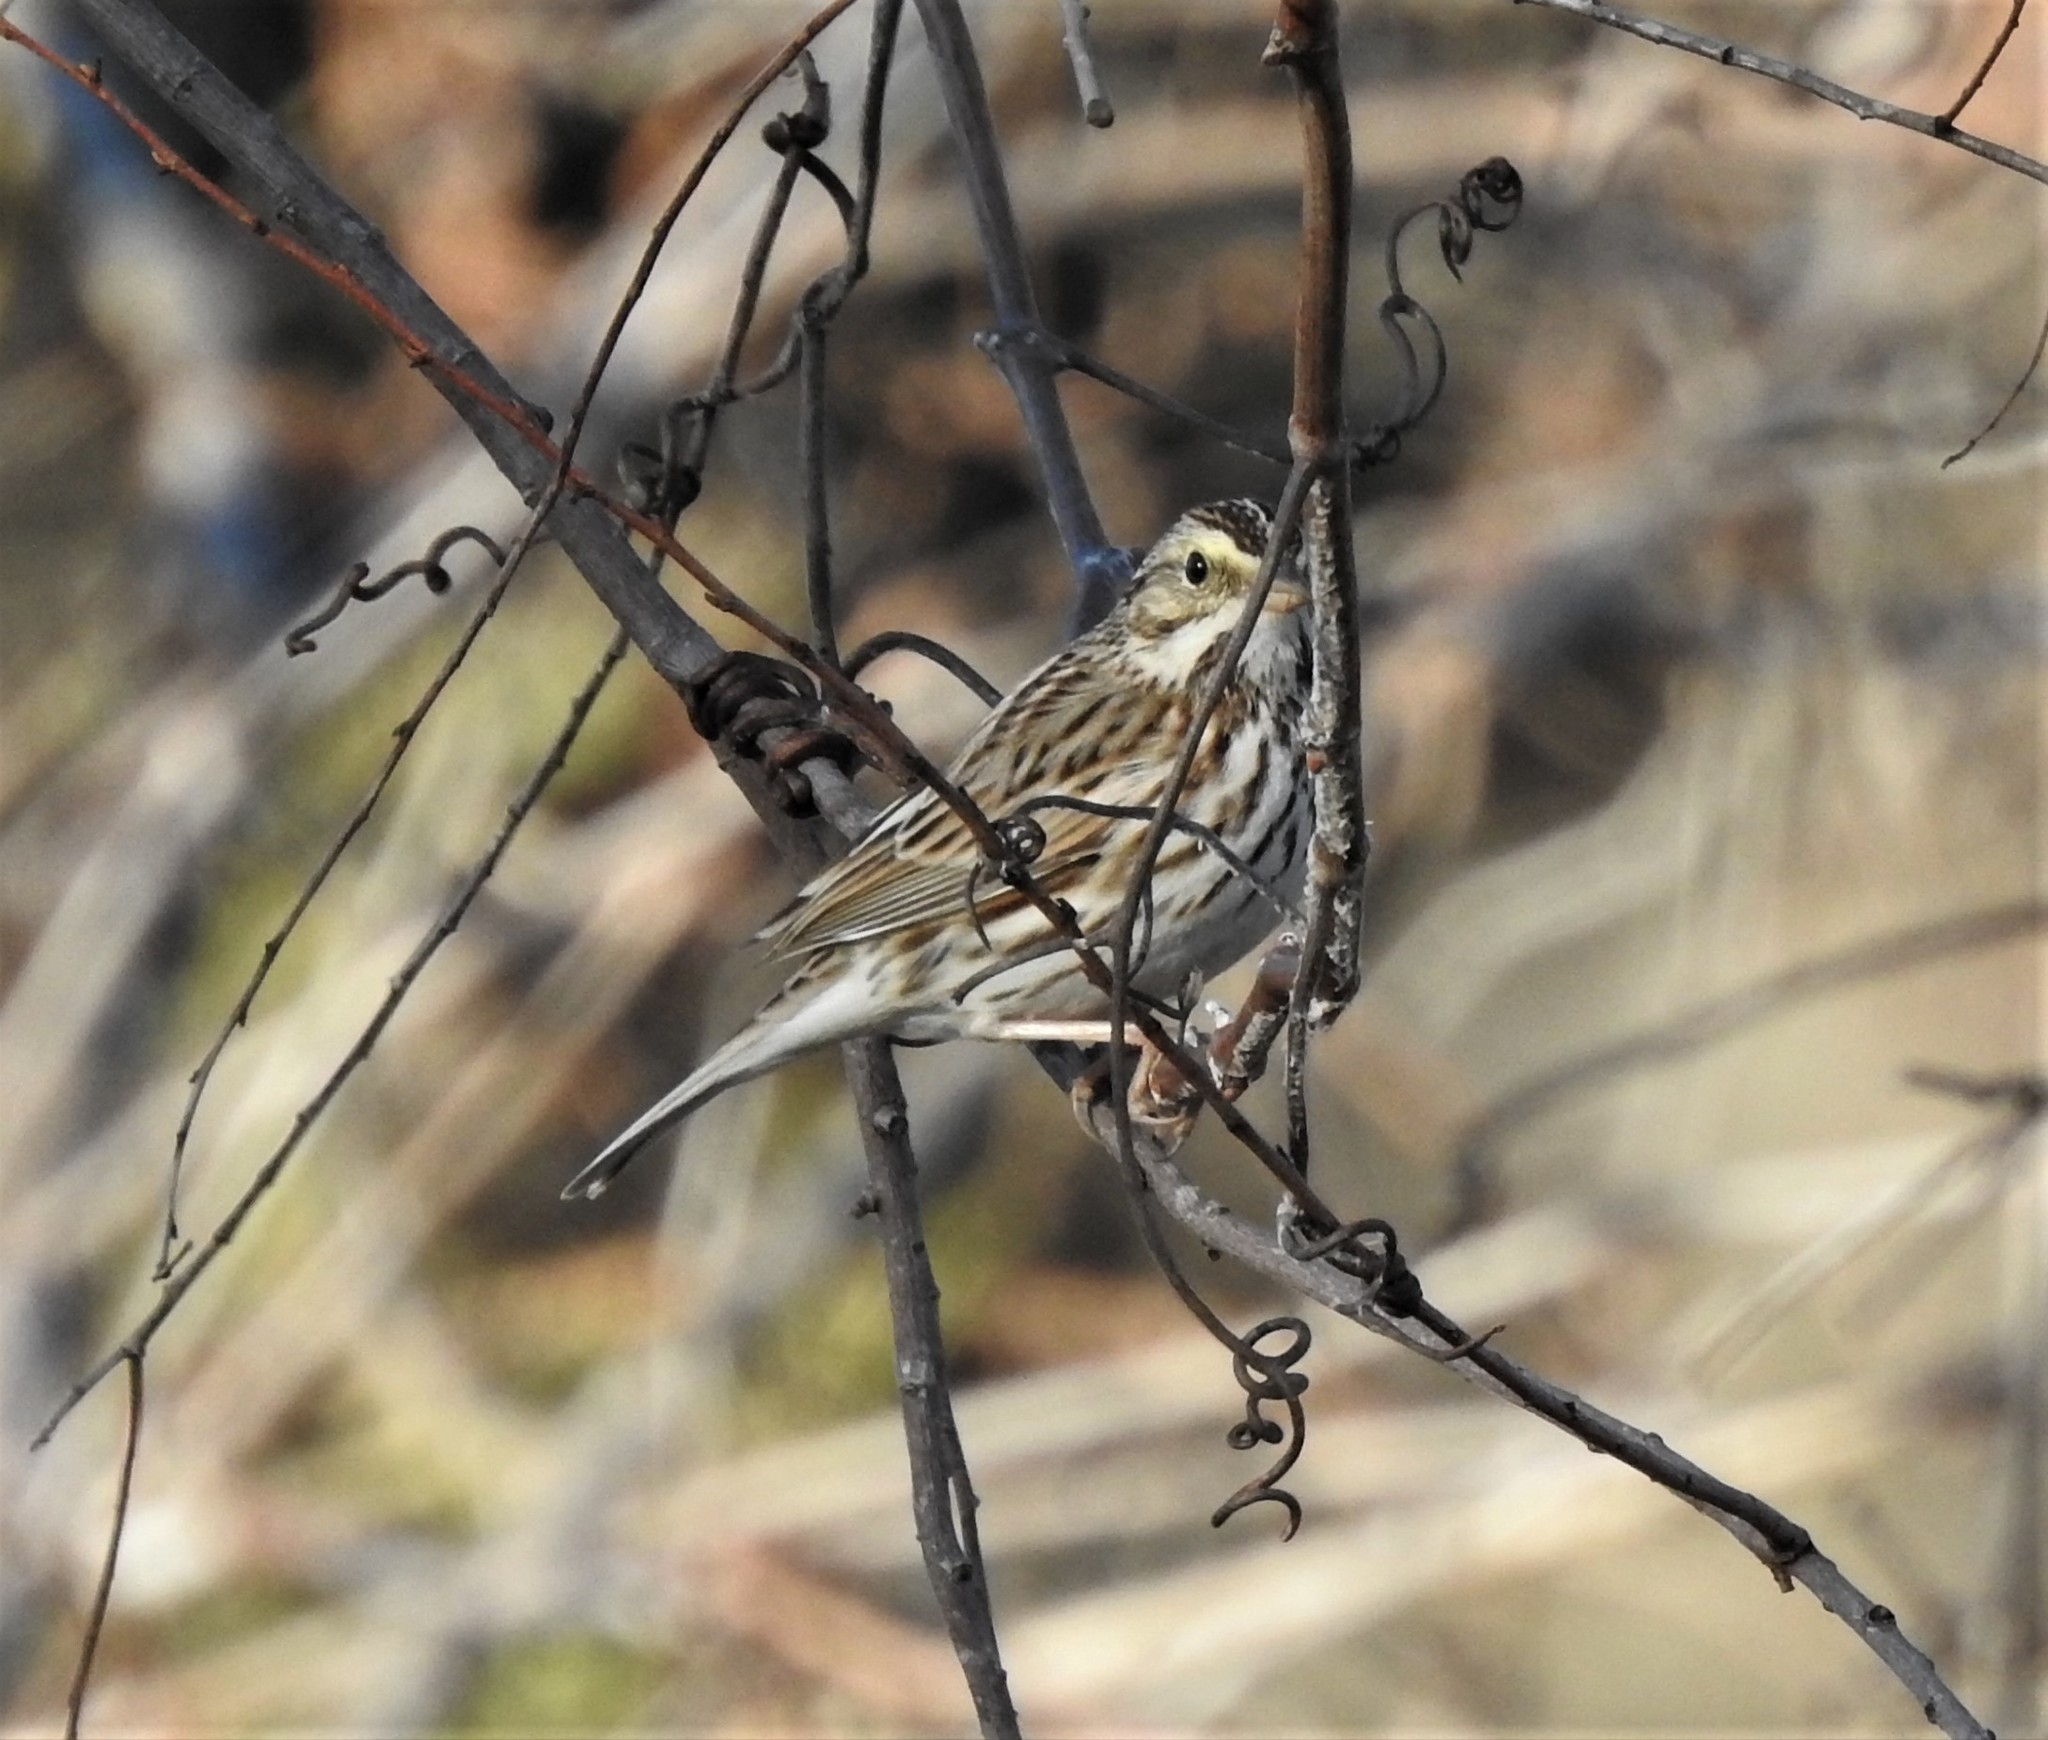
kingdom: Animalia
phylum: Chordata
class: Aves
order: Passeriformes
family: Passerellidae
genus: Passerculus
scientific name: Passerculus sandwichensis
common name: Savannah sparrow
